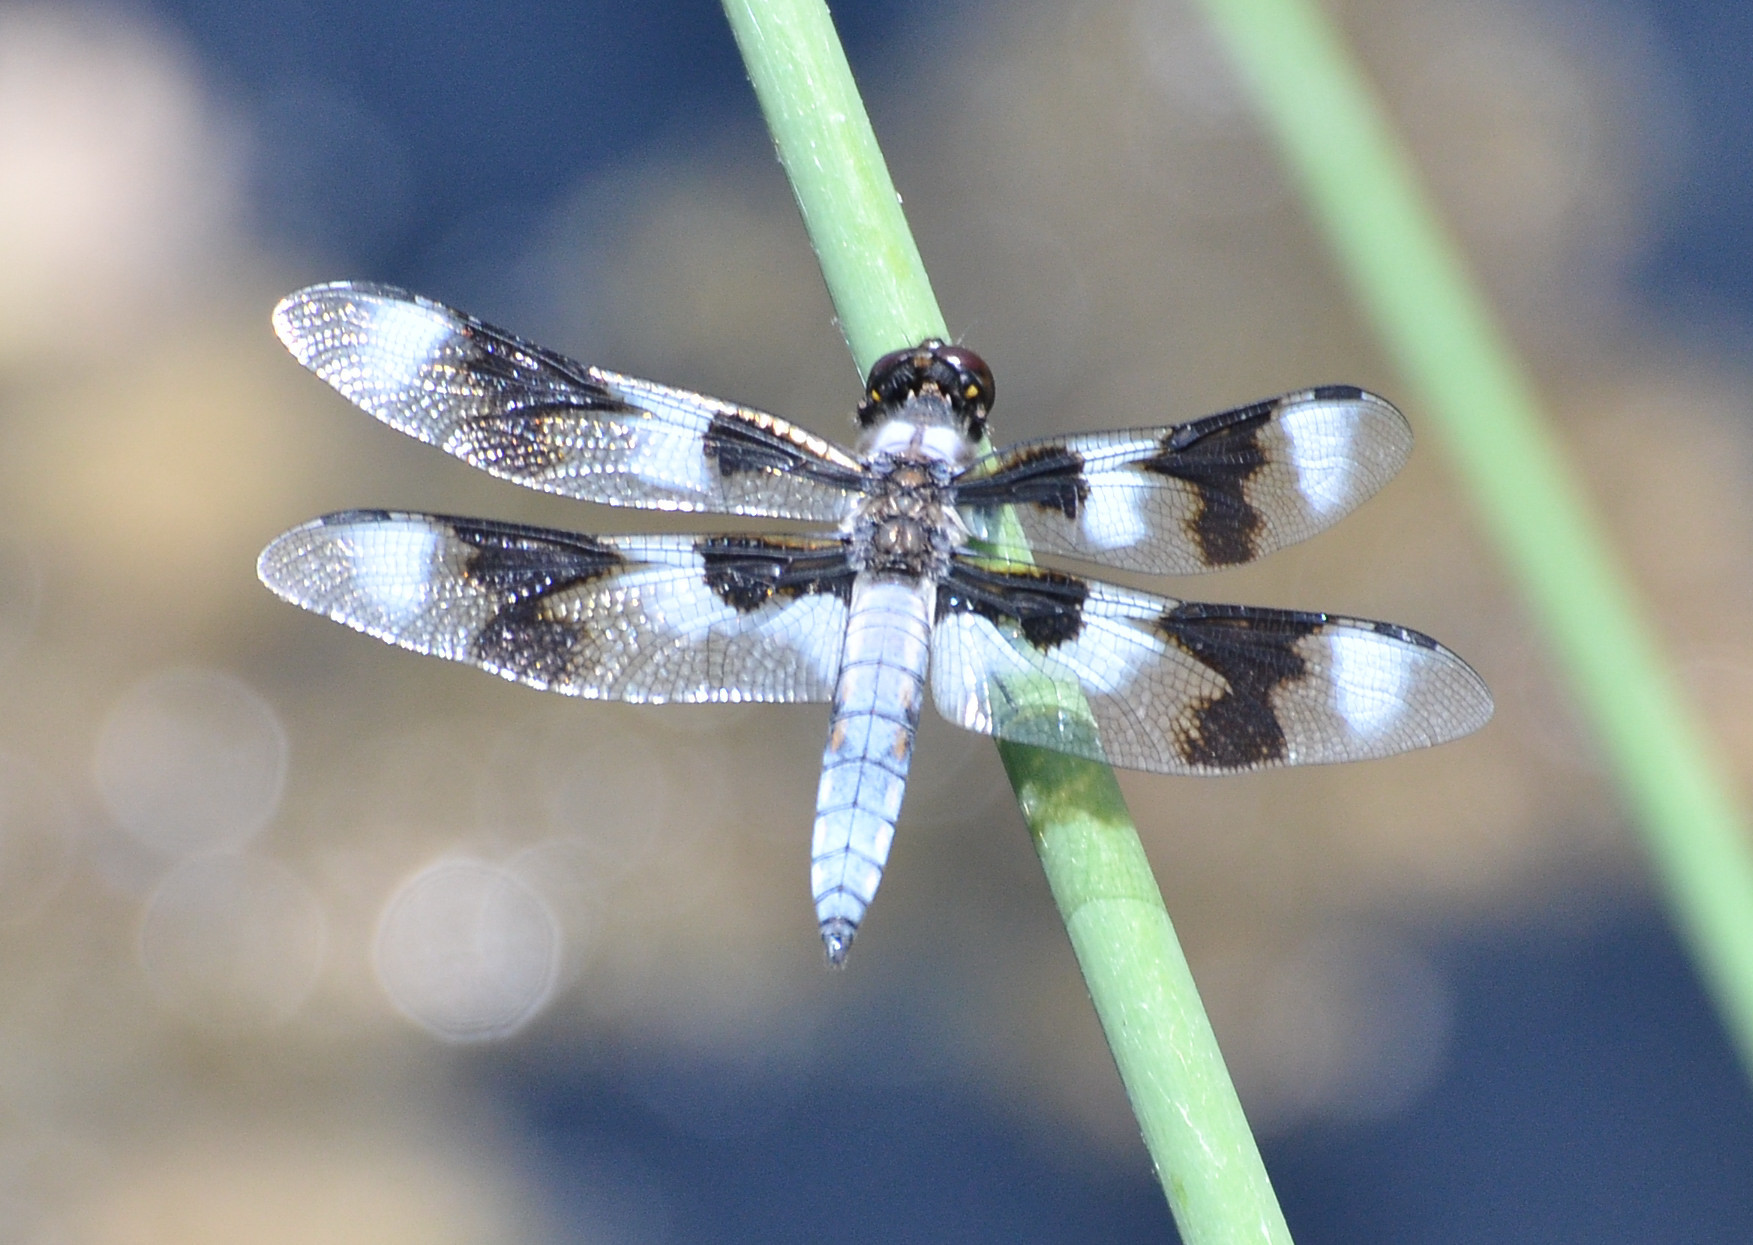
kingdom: Animalia
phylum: Arthropoda
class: Insecta
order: Odonata
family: Libellulidae
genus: Libellula
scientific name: Libellula forensis
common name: Eight-spotted skimmer
